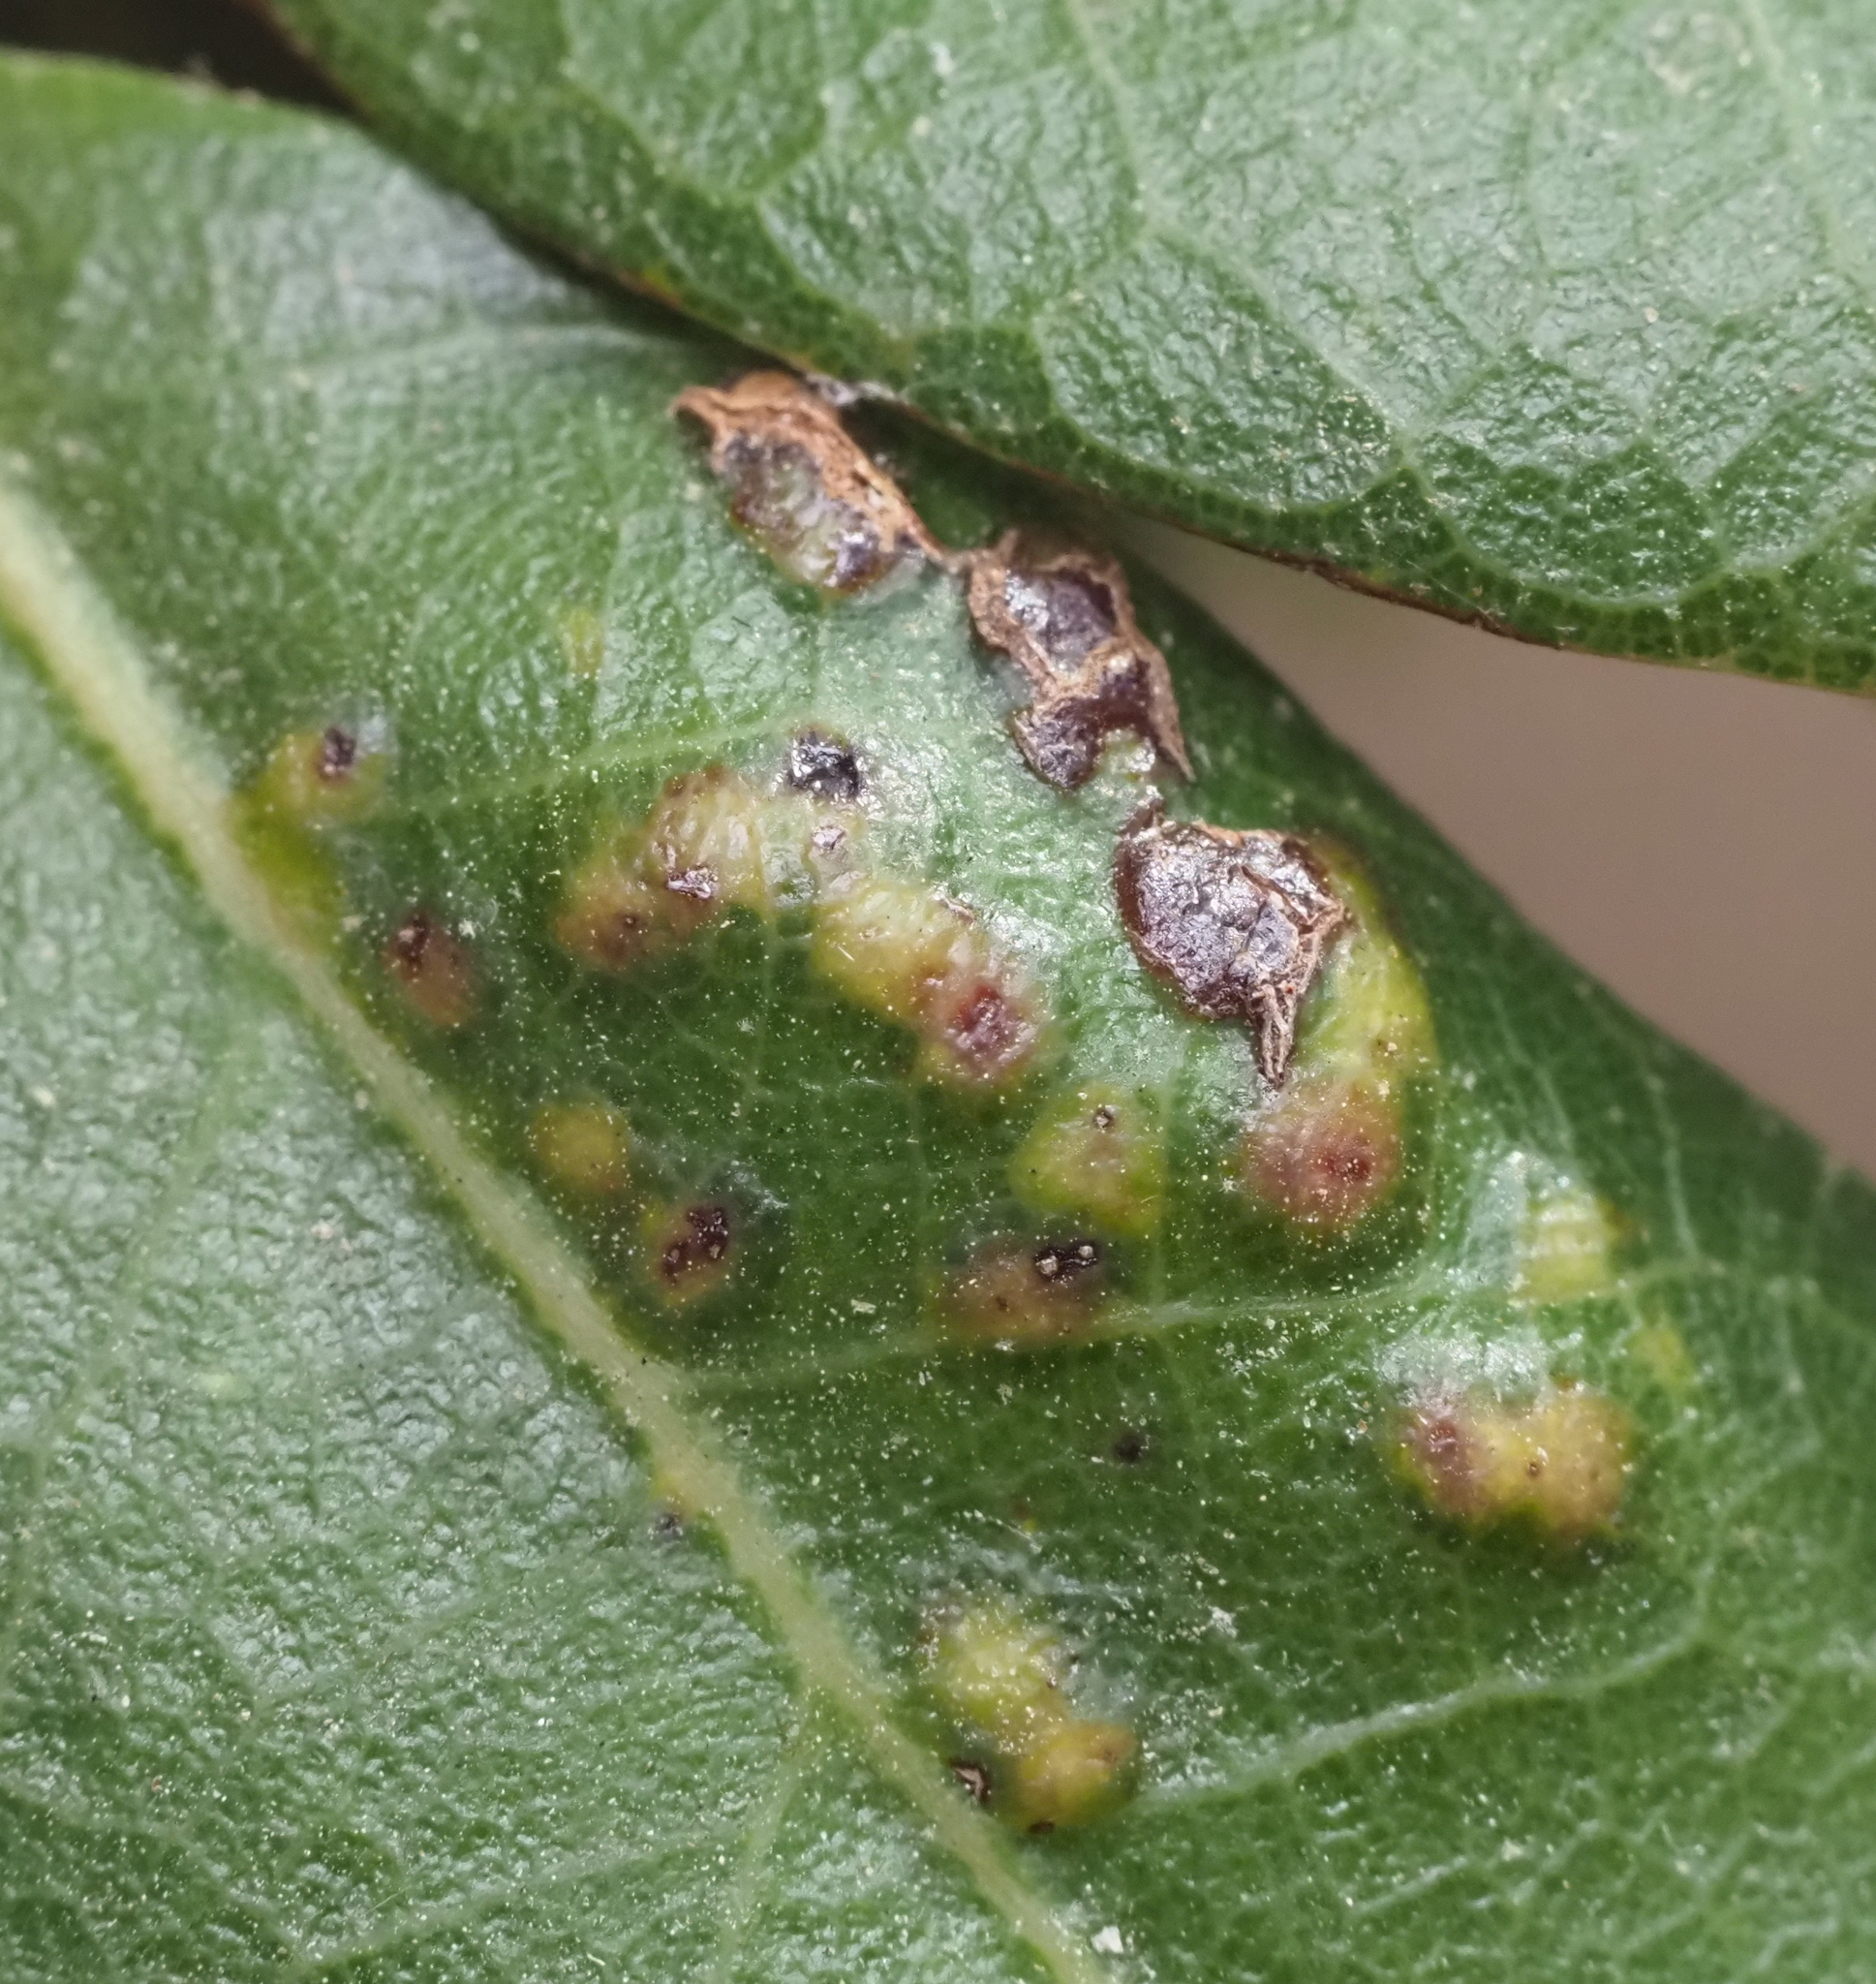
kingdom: Animalia
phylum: Arthropoda
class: Insecta
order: Hymenoptera
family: Cynipidae
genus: Neuroterus
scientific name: Neuroterus bussae
